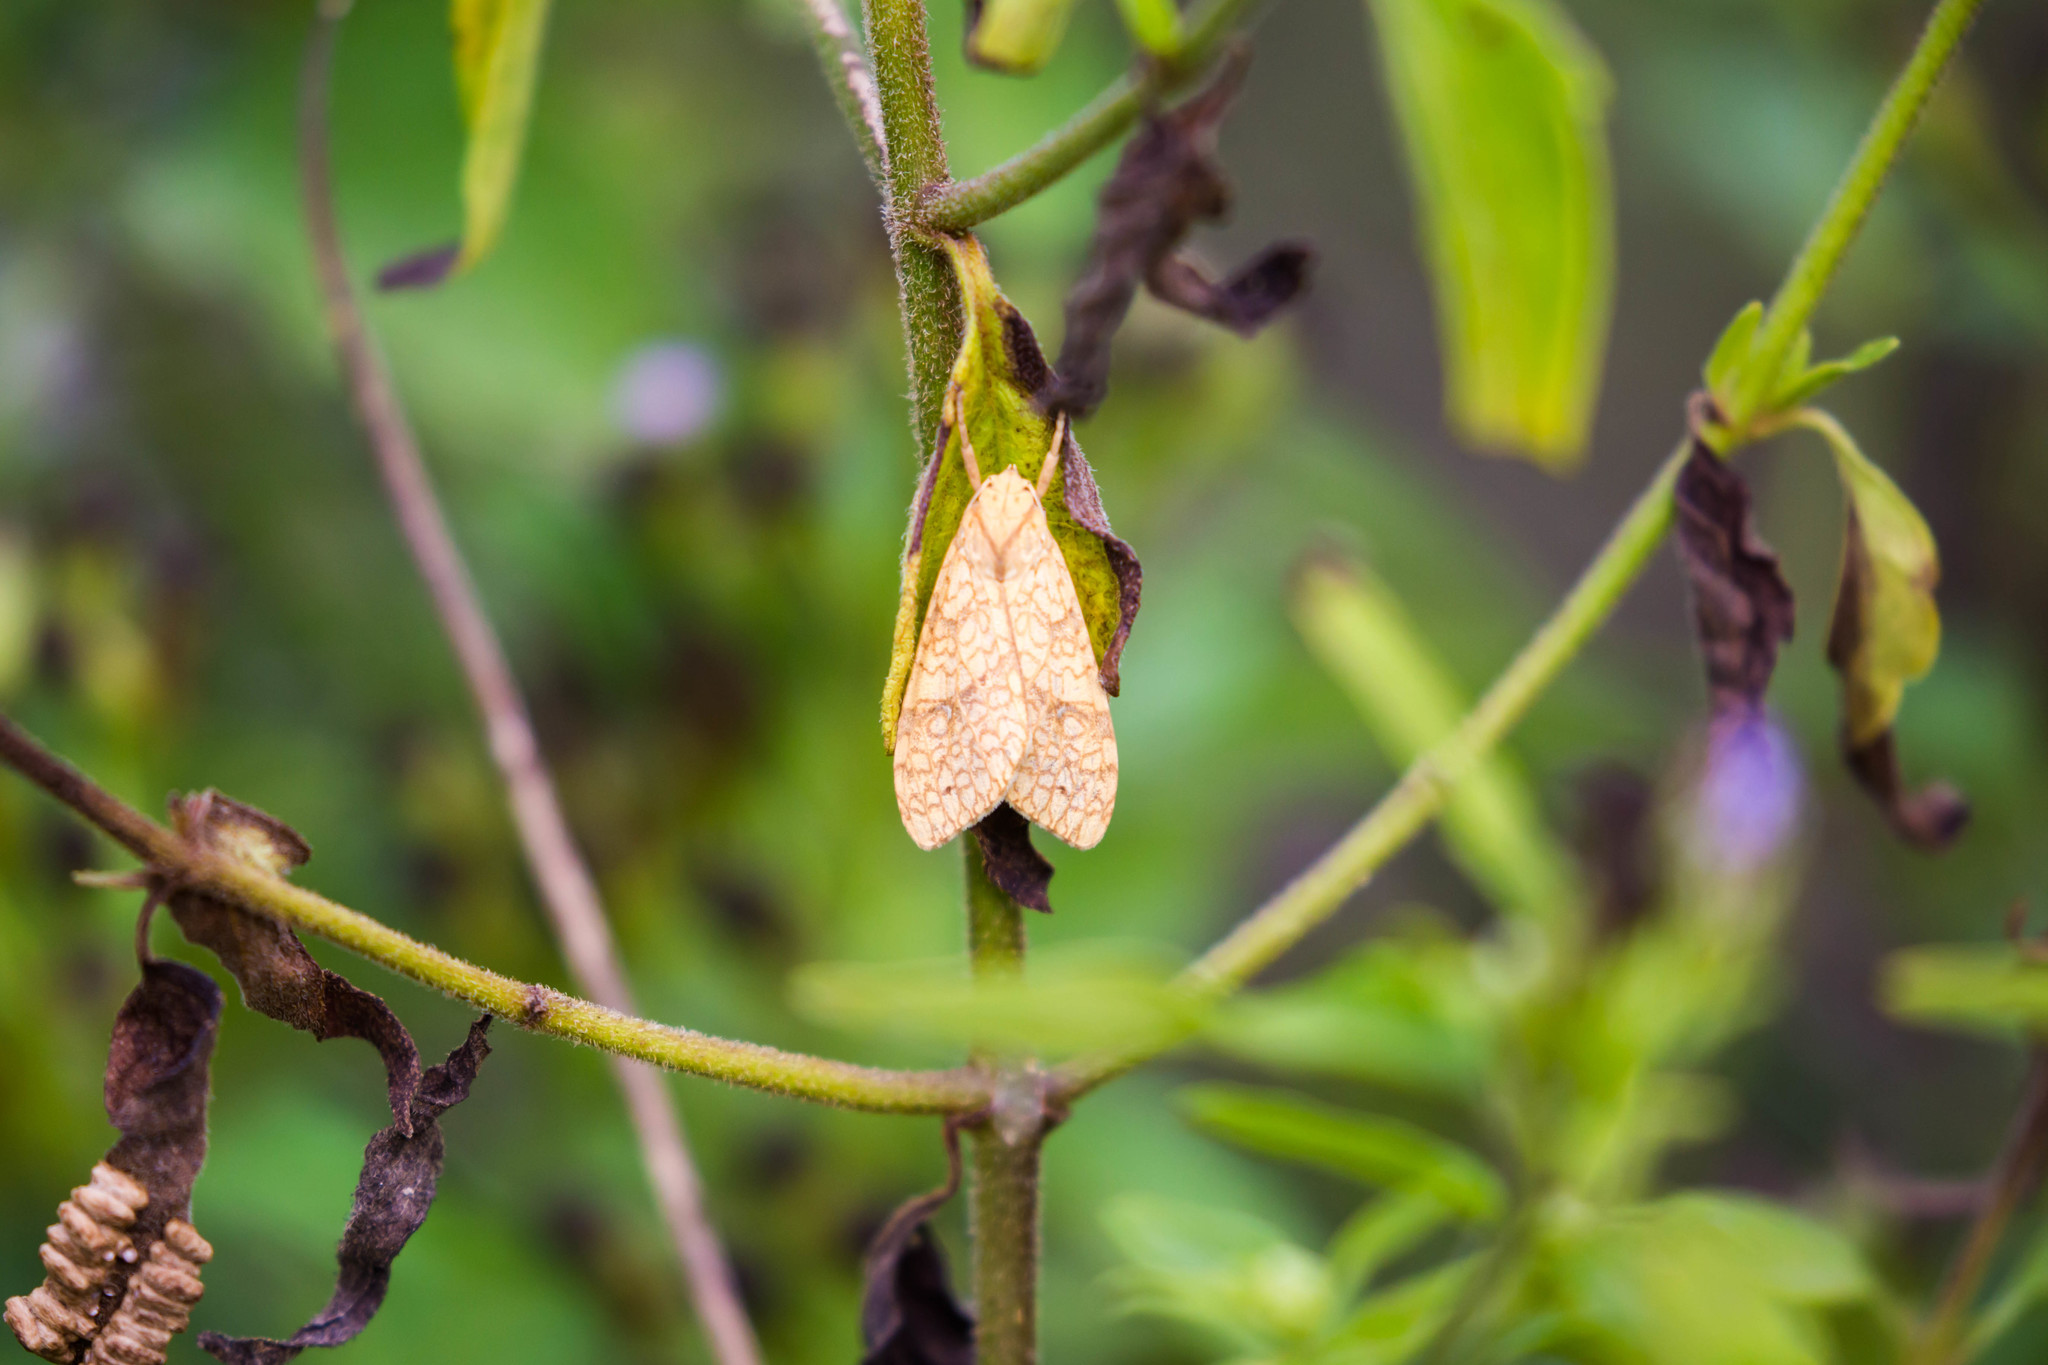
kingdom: Animalia
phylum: Arthropoda
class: Insecta
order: Lepidoptera
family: Erebidae
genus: Lophocampa
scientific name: Lophocampa annulosa
